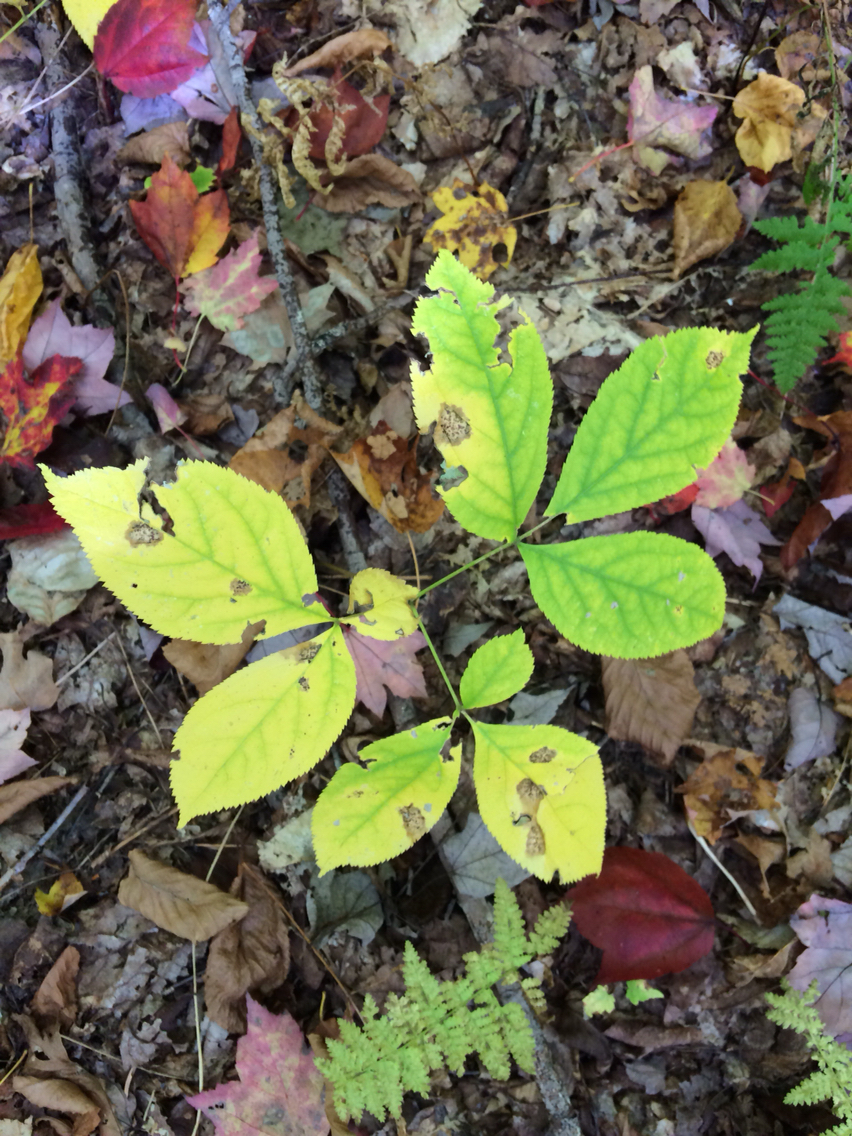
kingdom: Plantae
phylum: Tracheophyta
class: Magnoliopsida
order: Apiales
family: Araliaceae
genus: Aralia
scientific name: Aralia nudicaulis
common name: Wild sarsaparilla
